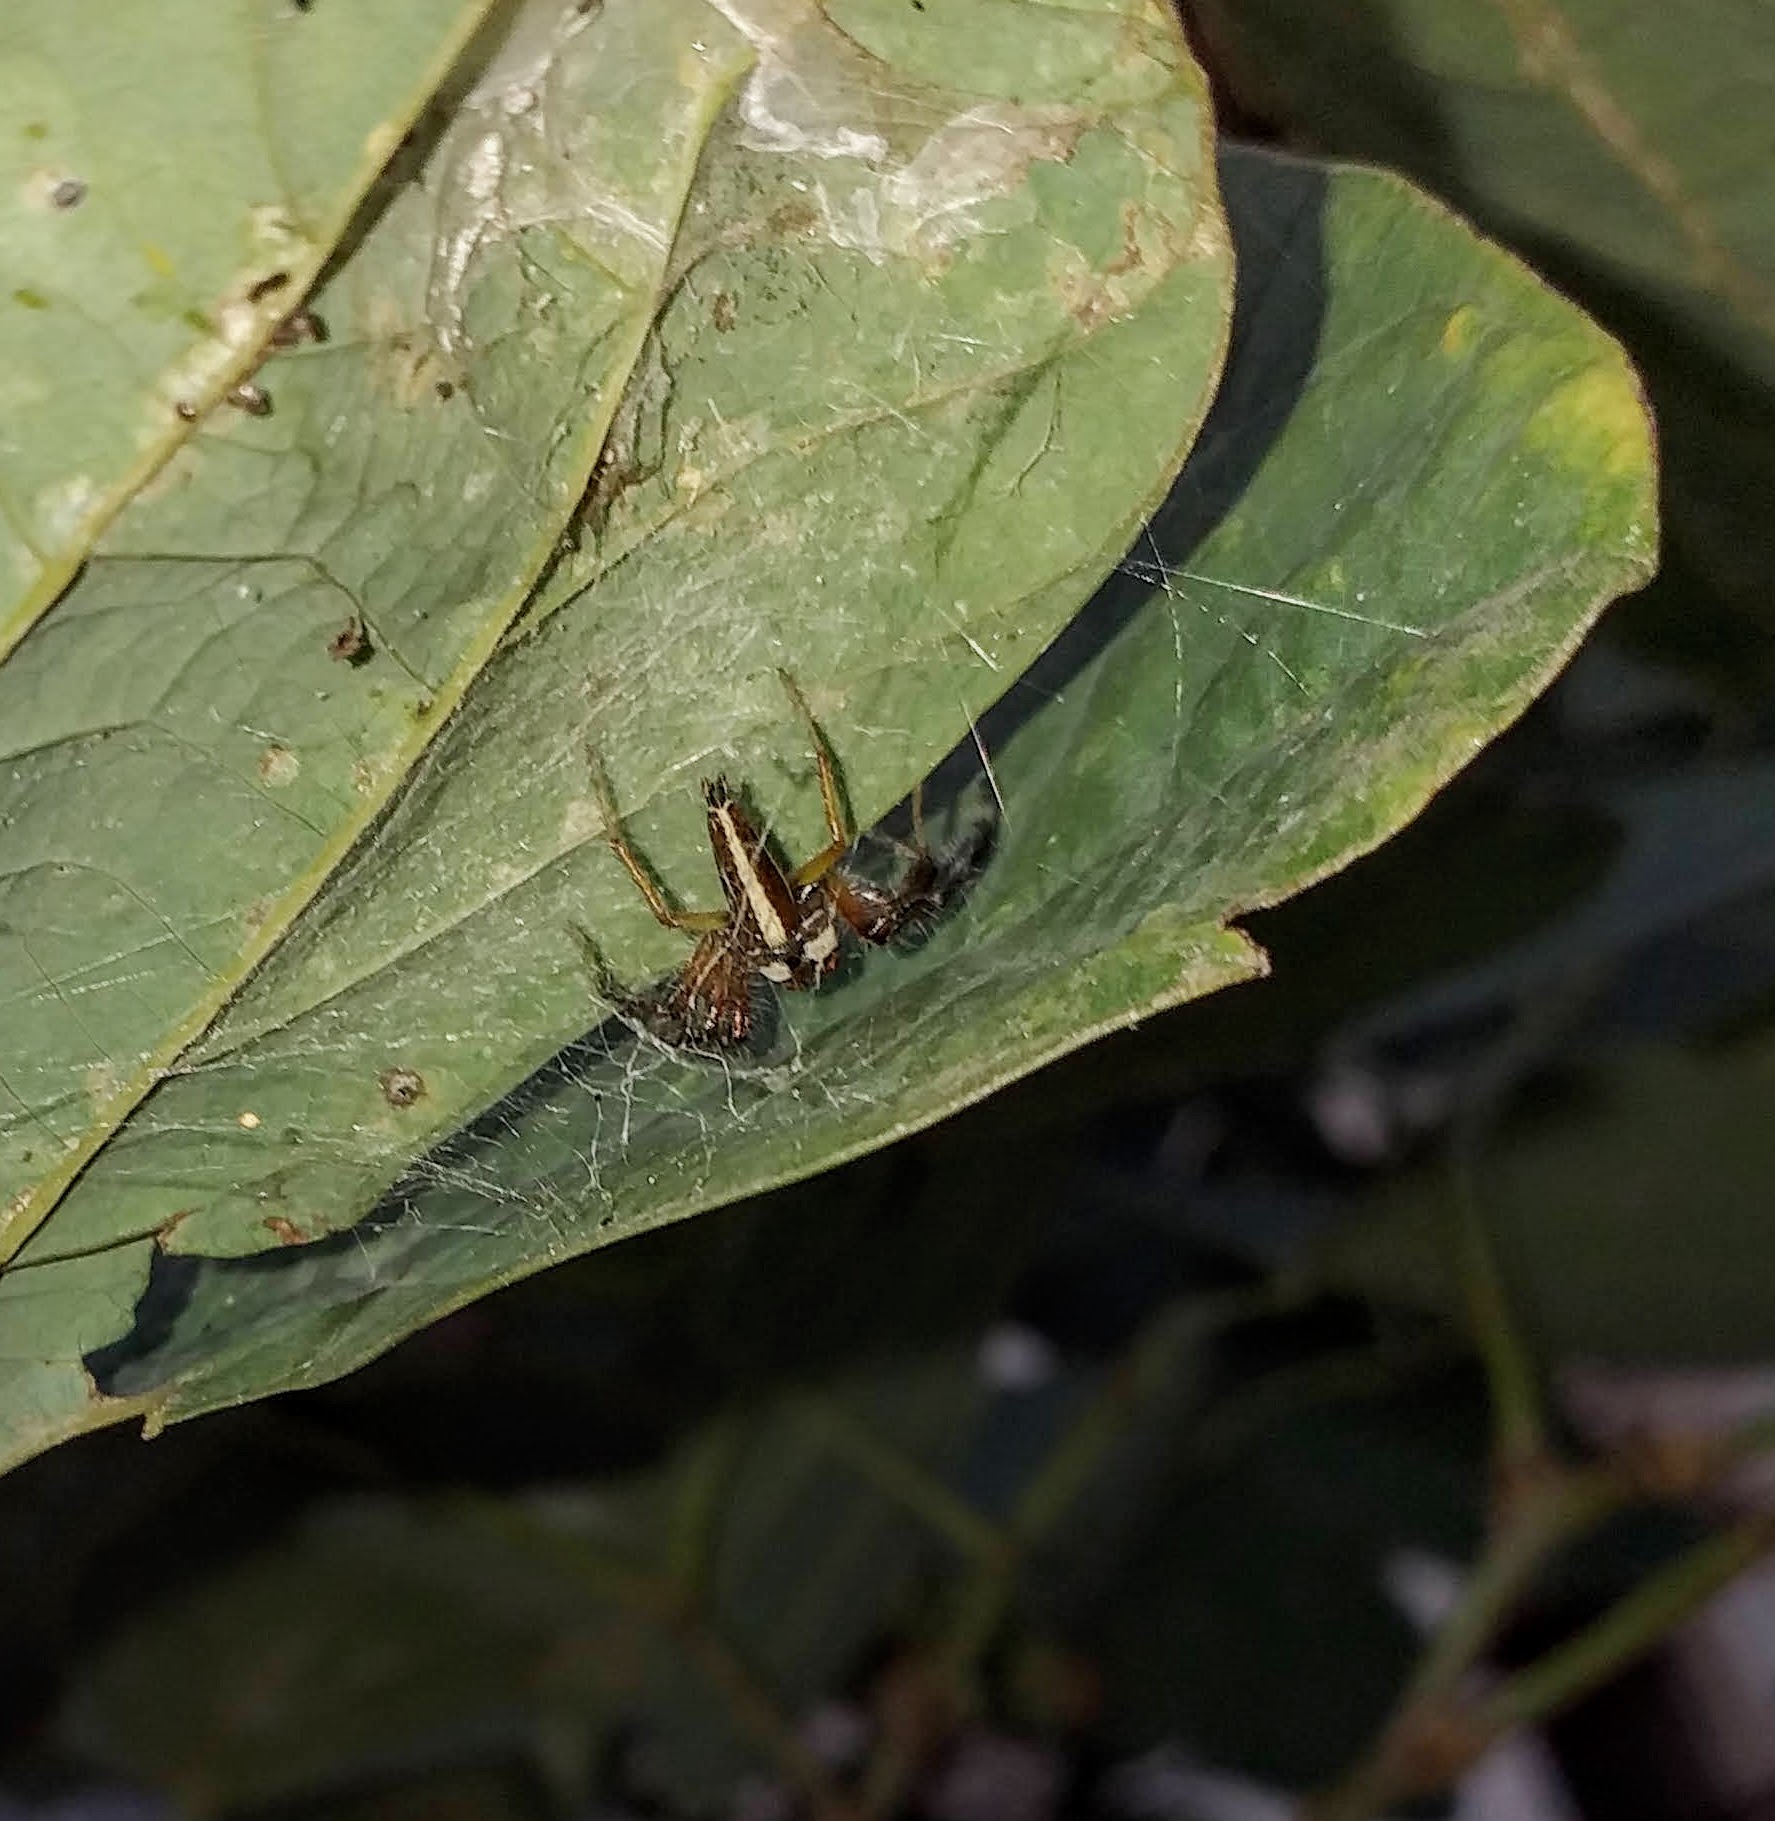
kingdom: Animalia
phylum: Arthropoda
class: Arachnida
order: Araneae
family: Salticidae
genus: Telamonia
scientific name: Telamonia dimidiata
